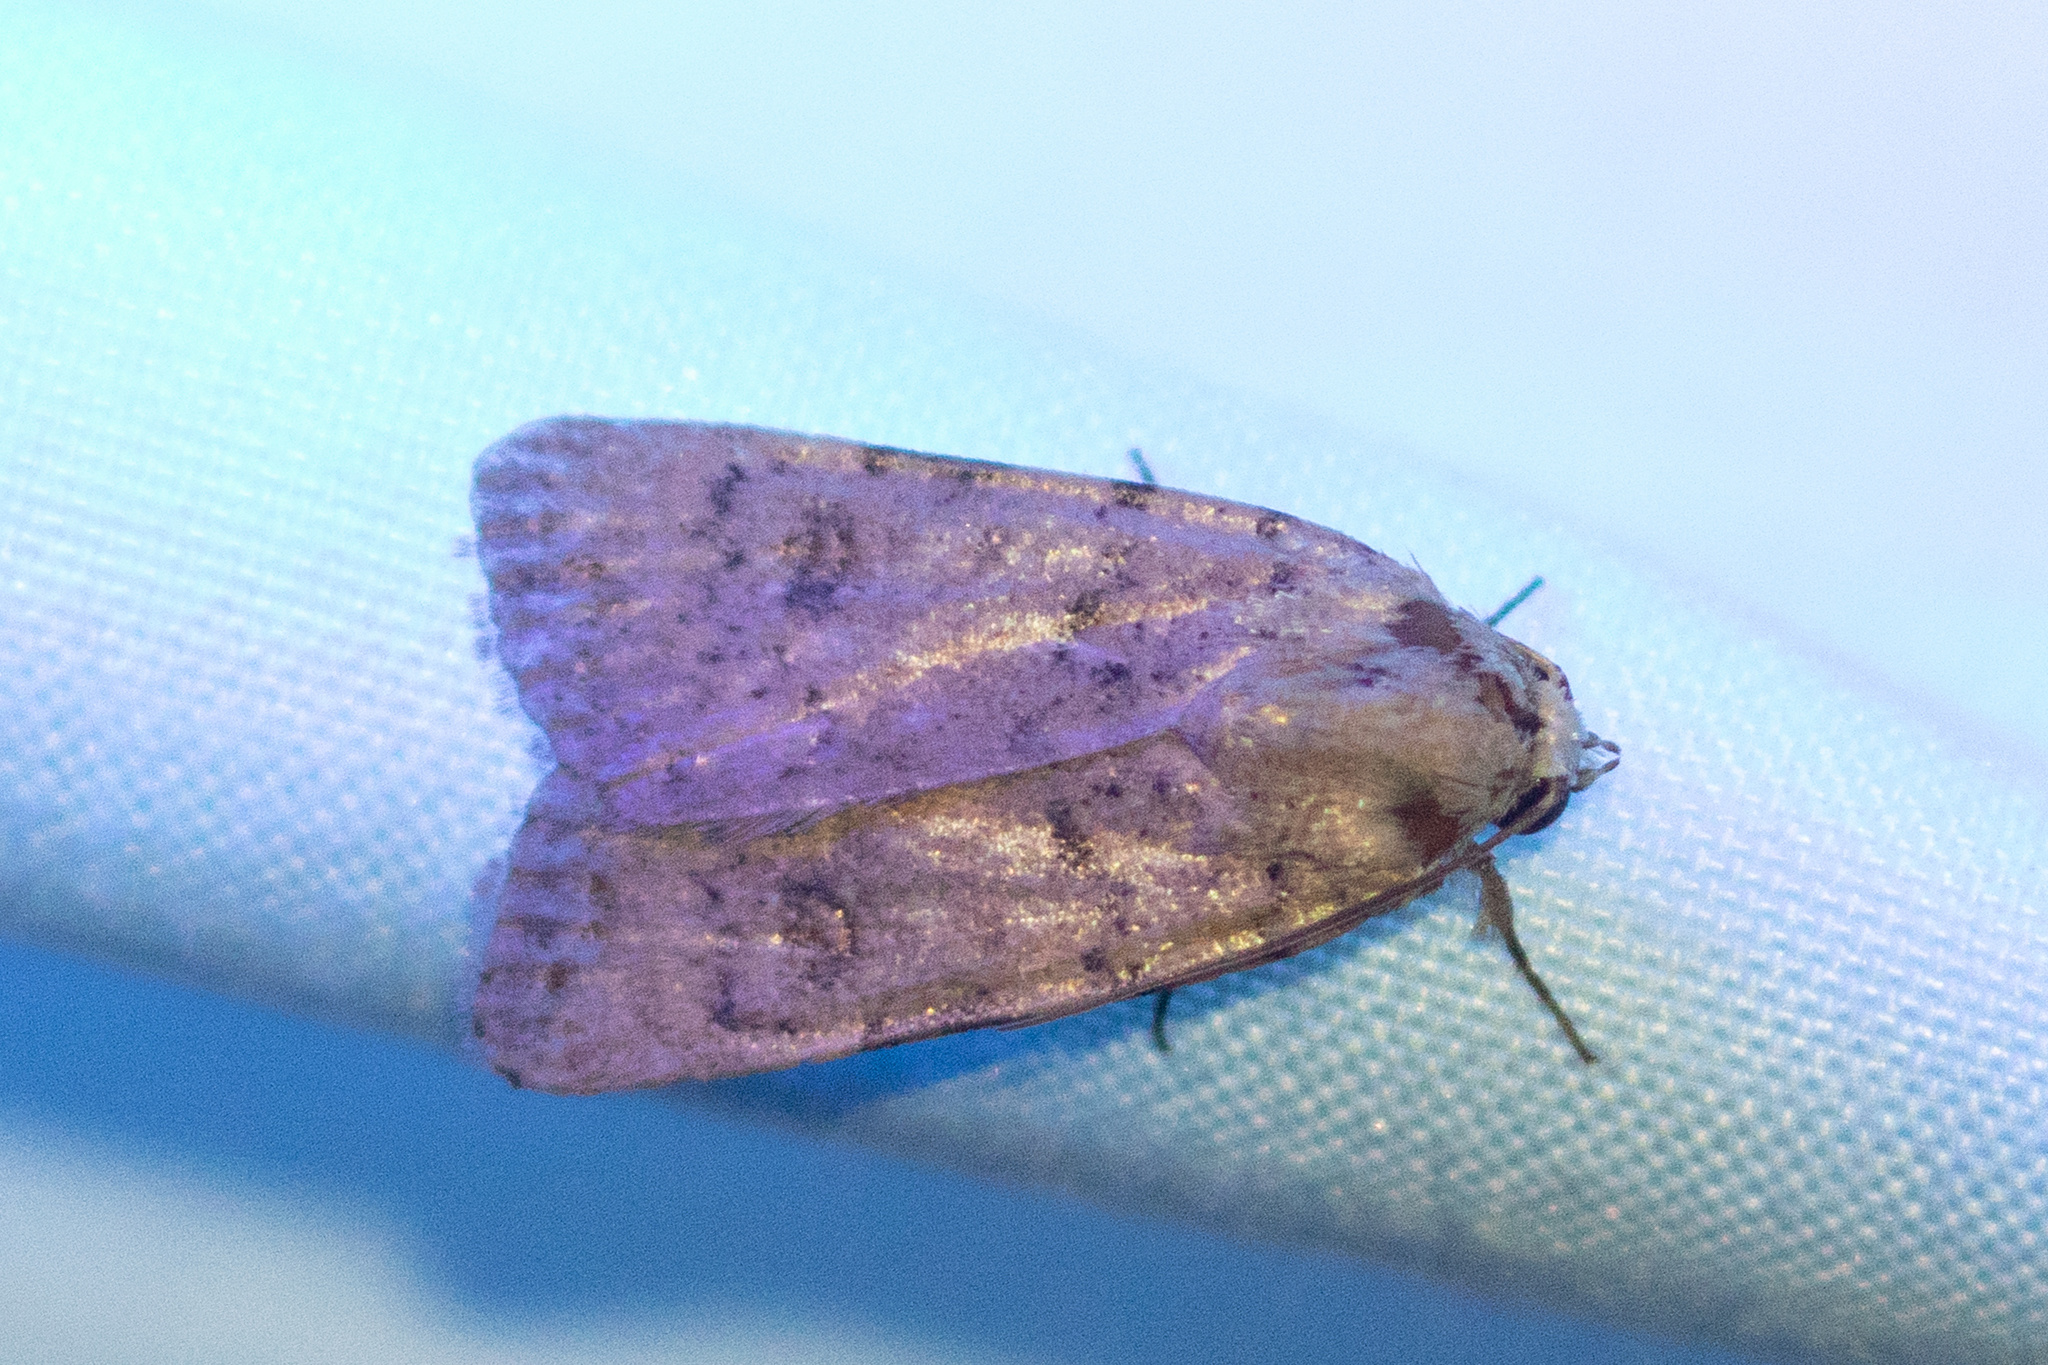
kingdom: Animalia
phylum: Arthropoda
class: Insecta
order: Lepidoptera
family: Noctuidae
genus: Caradrina
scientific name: Caradrina clavipalpis
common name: Pale mottled willow
